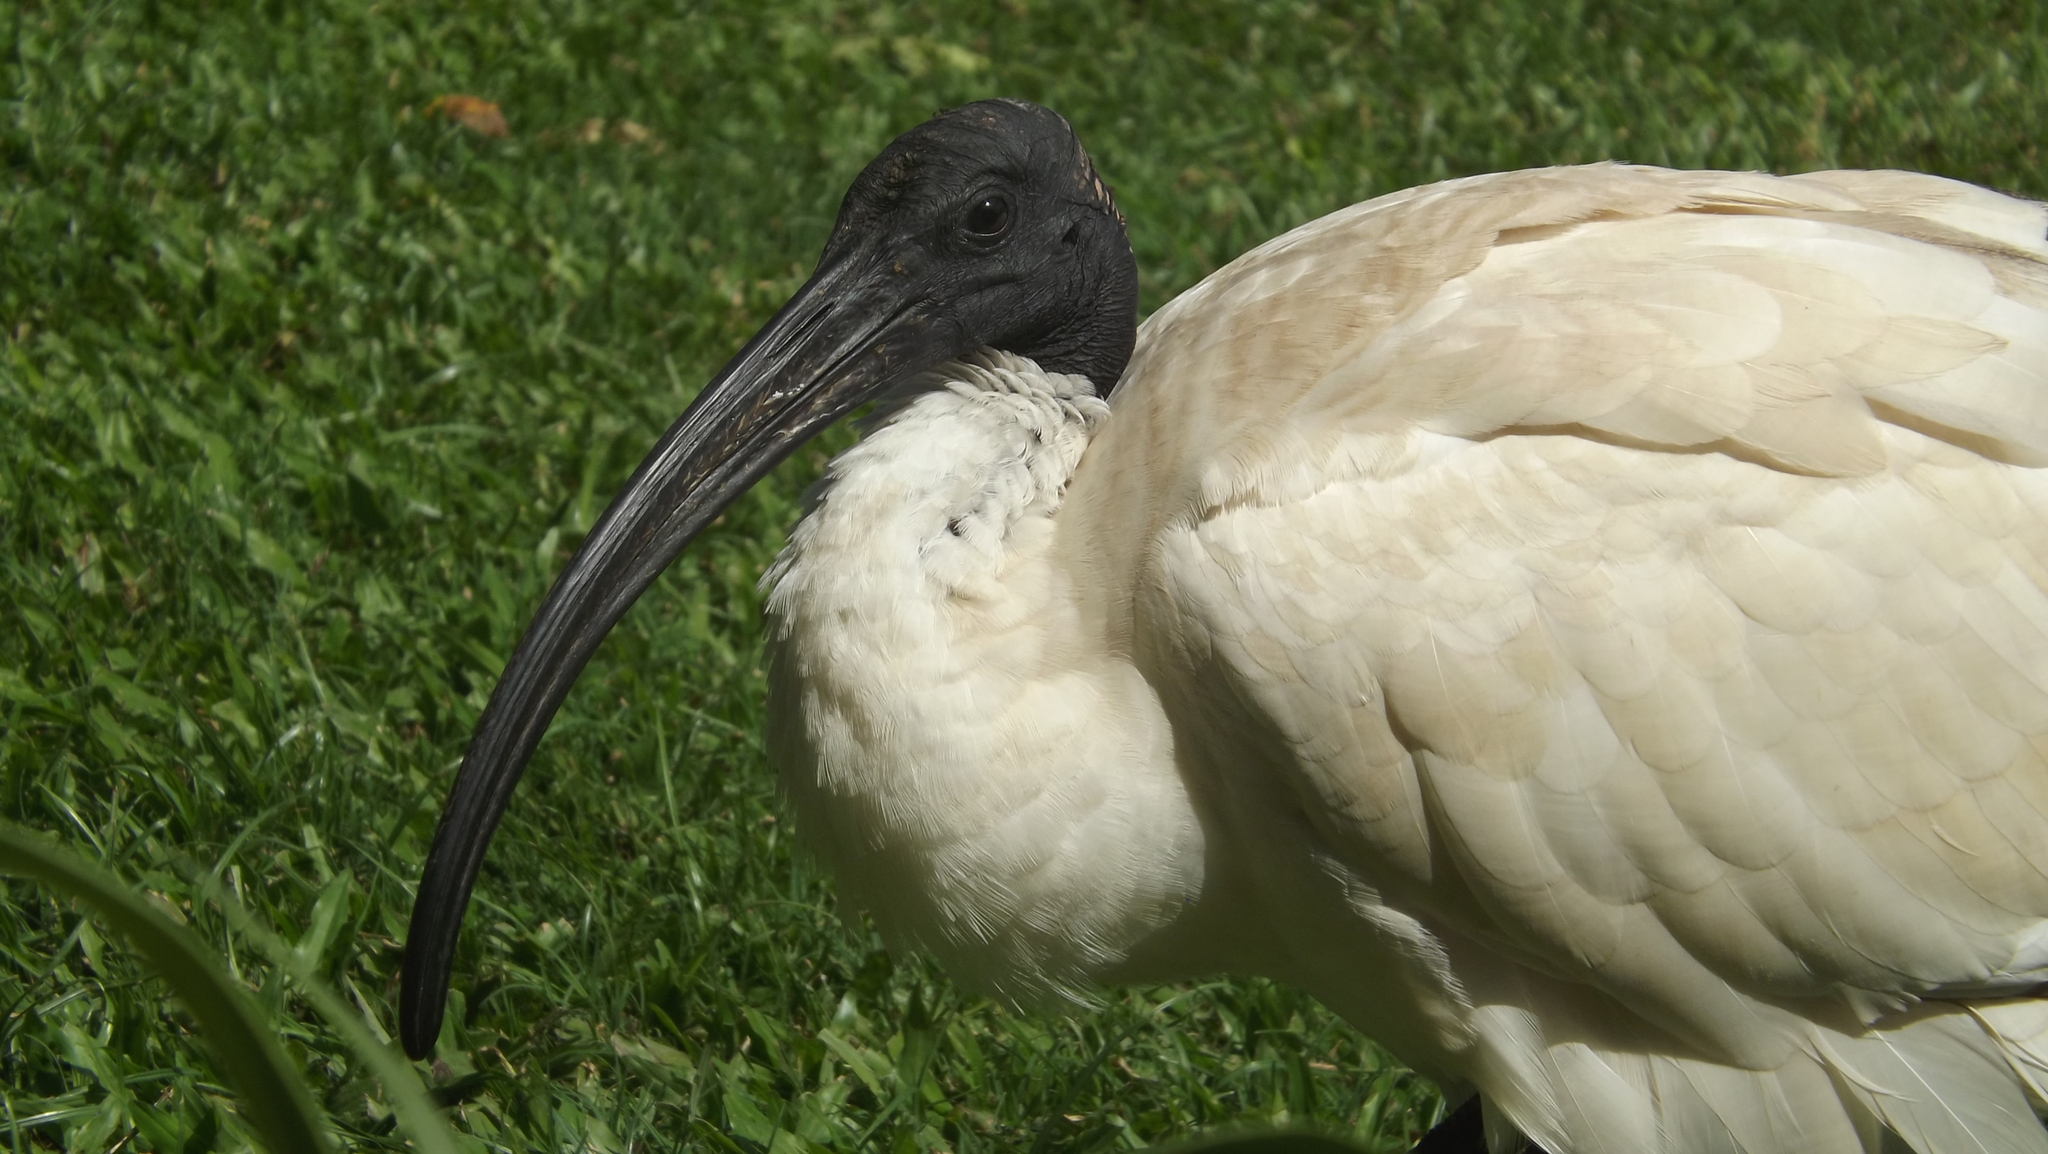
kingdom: Animalia
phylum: Chordata
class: Aves
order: Pelecaniformes
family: Threskiornithidae
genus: Threskiornis
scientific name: Threskiornis molucca
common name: Australian white ibis
